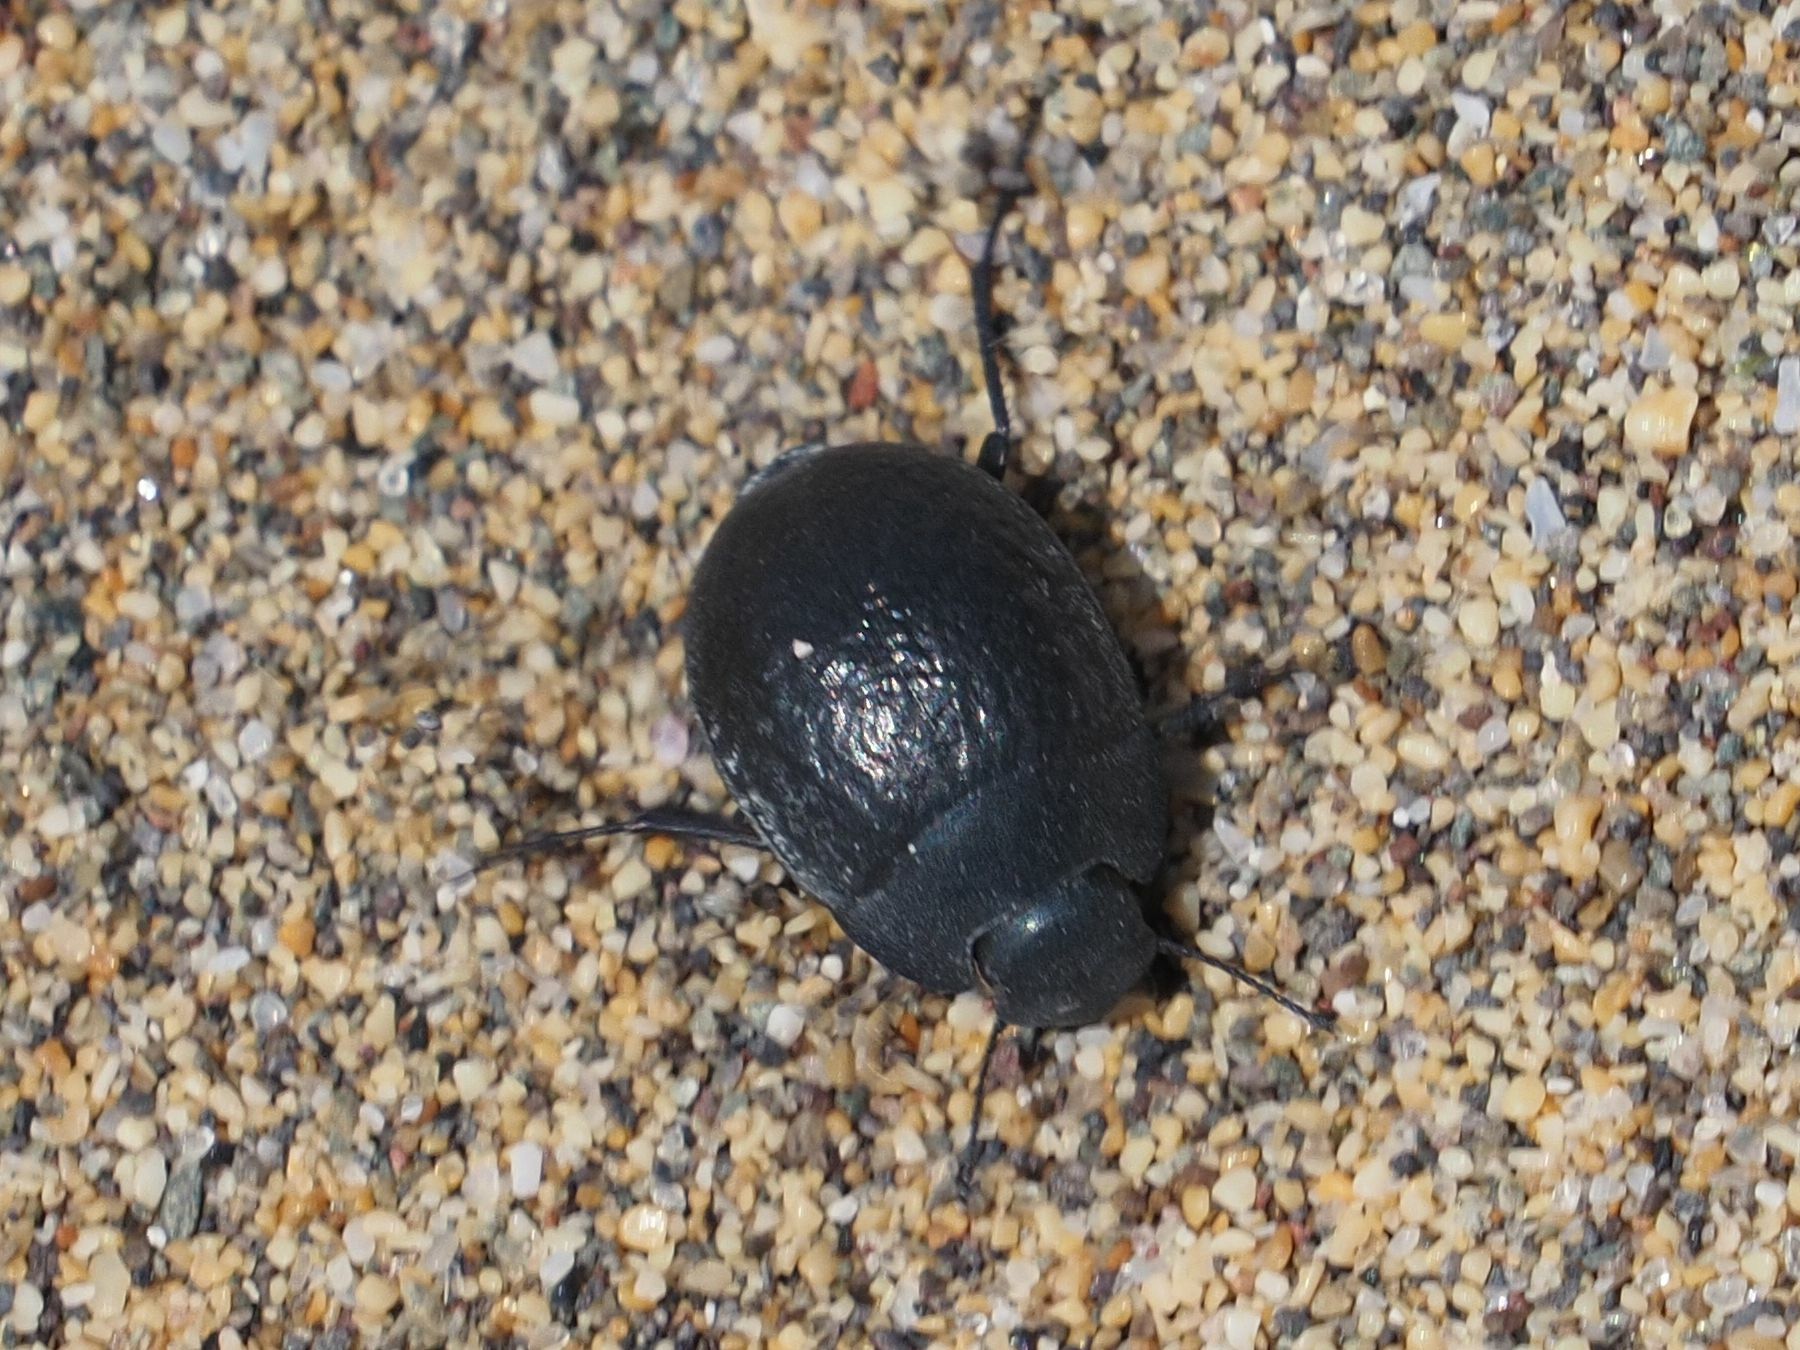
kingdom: Animalia
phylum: Arthropoda
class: Insecta
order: Coleoptera
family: Tenebrionidae
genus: Zophosis
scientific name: Zophosis bicarinata
